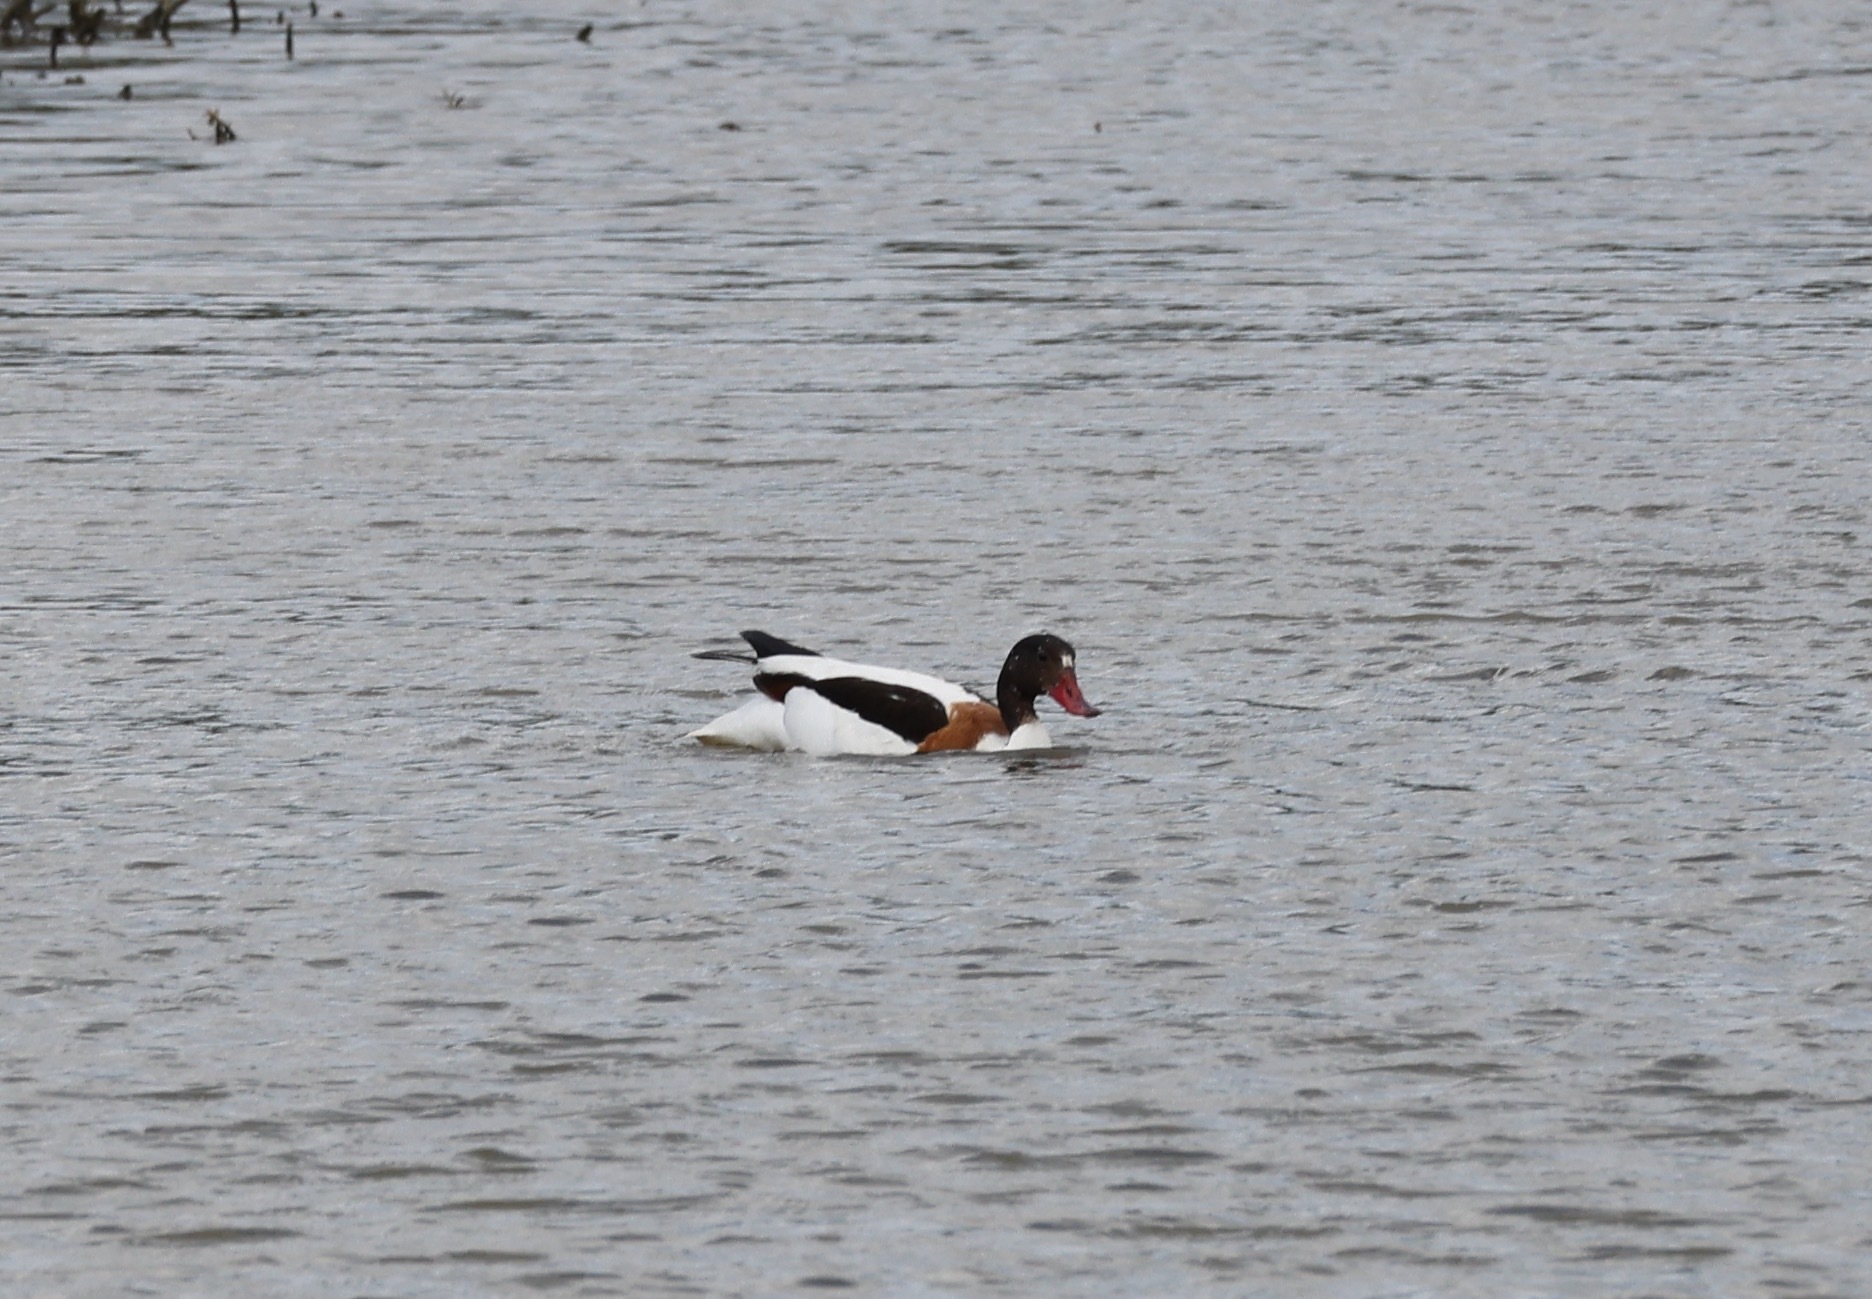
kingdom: Animalia
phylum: Chordata
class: Aves
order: Anseriformes
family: Anatidae
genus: Tadorna
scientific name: Tadorna tadorna
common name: Common shelduck
